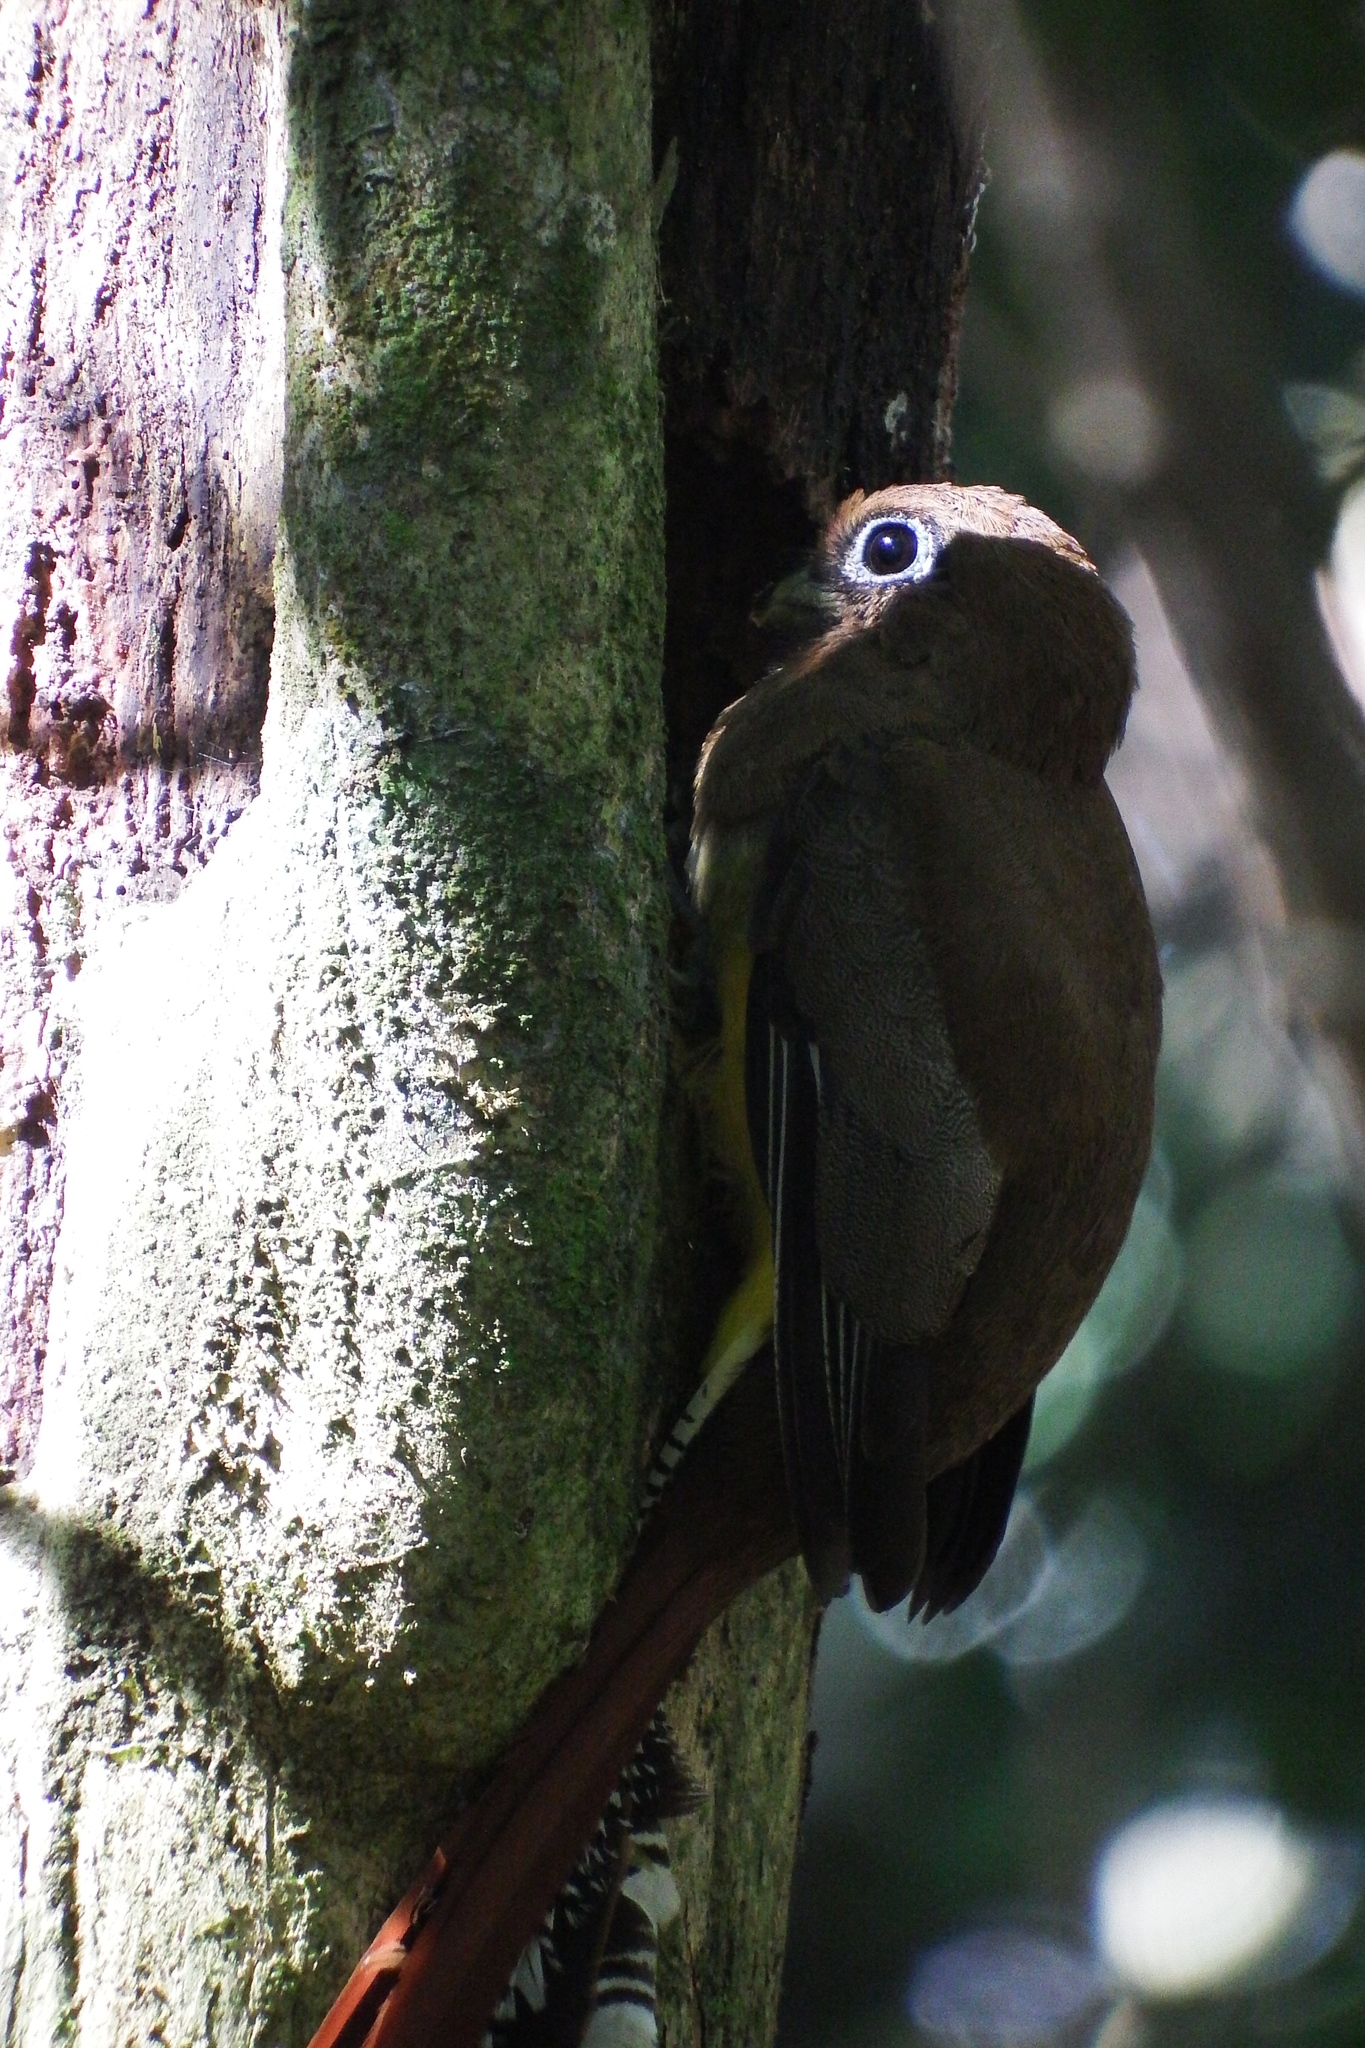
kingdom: Animalia
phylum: Chordata
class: Aves
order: Trogoniformes
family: Trogonidae
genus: Trogon
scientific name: Trogon rufus
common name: Black-throated trogon
